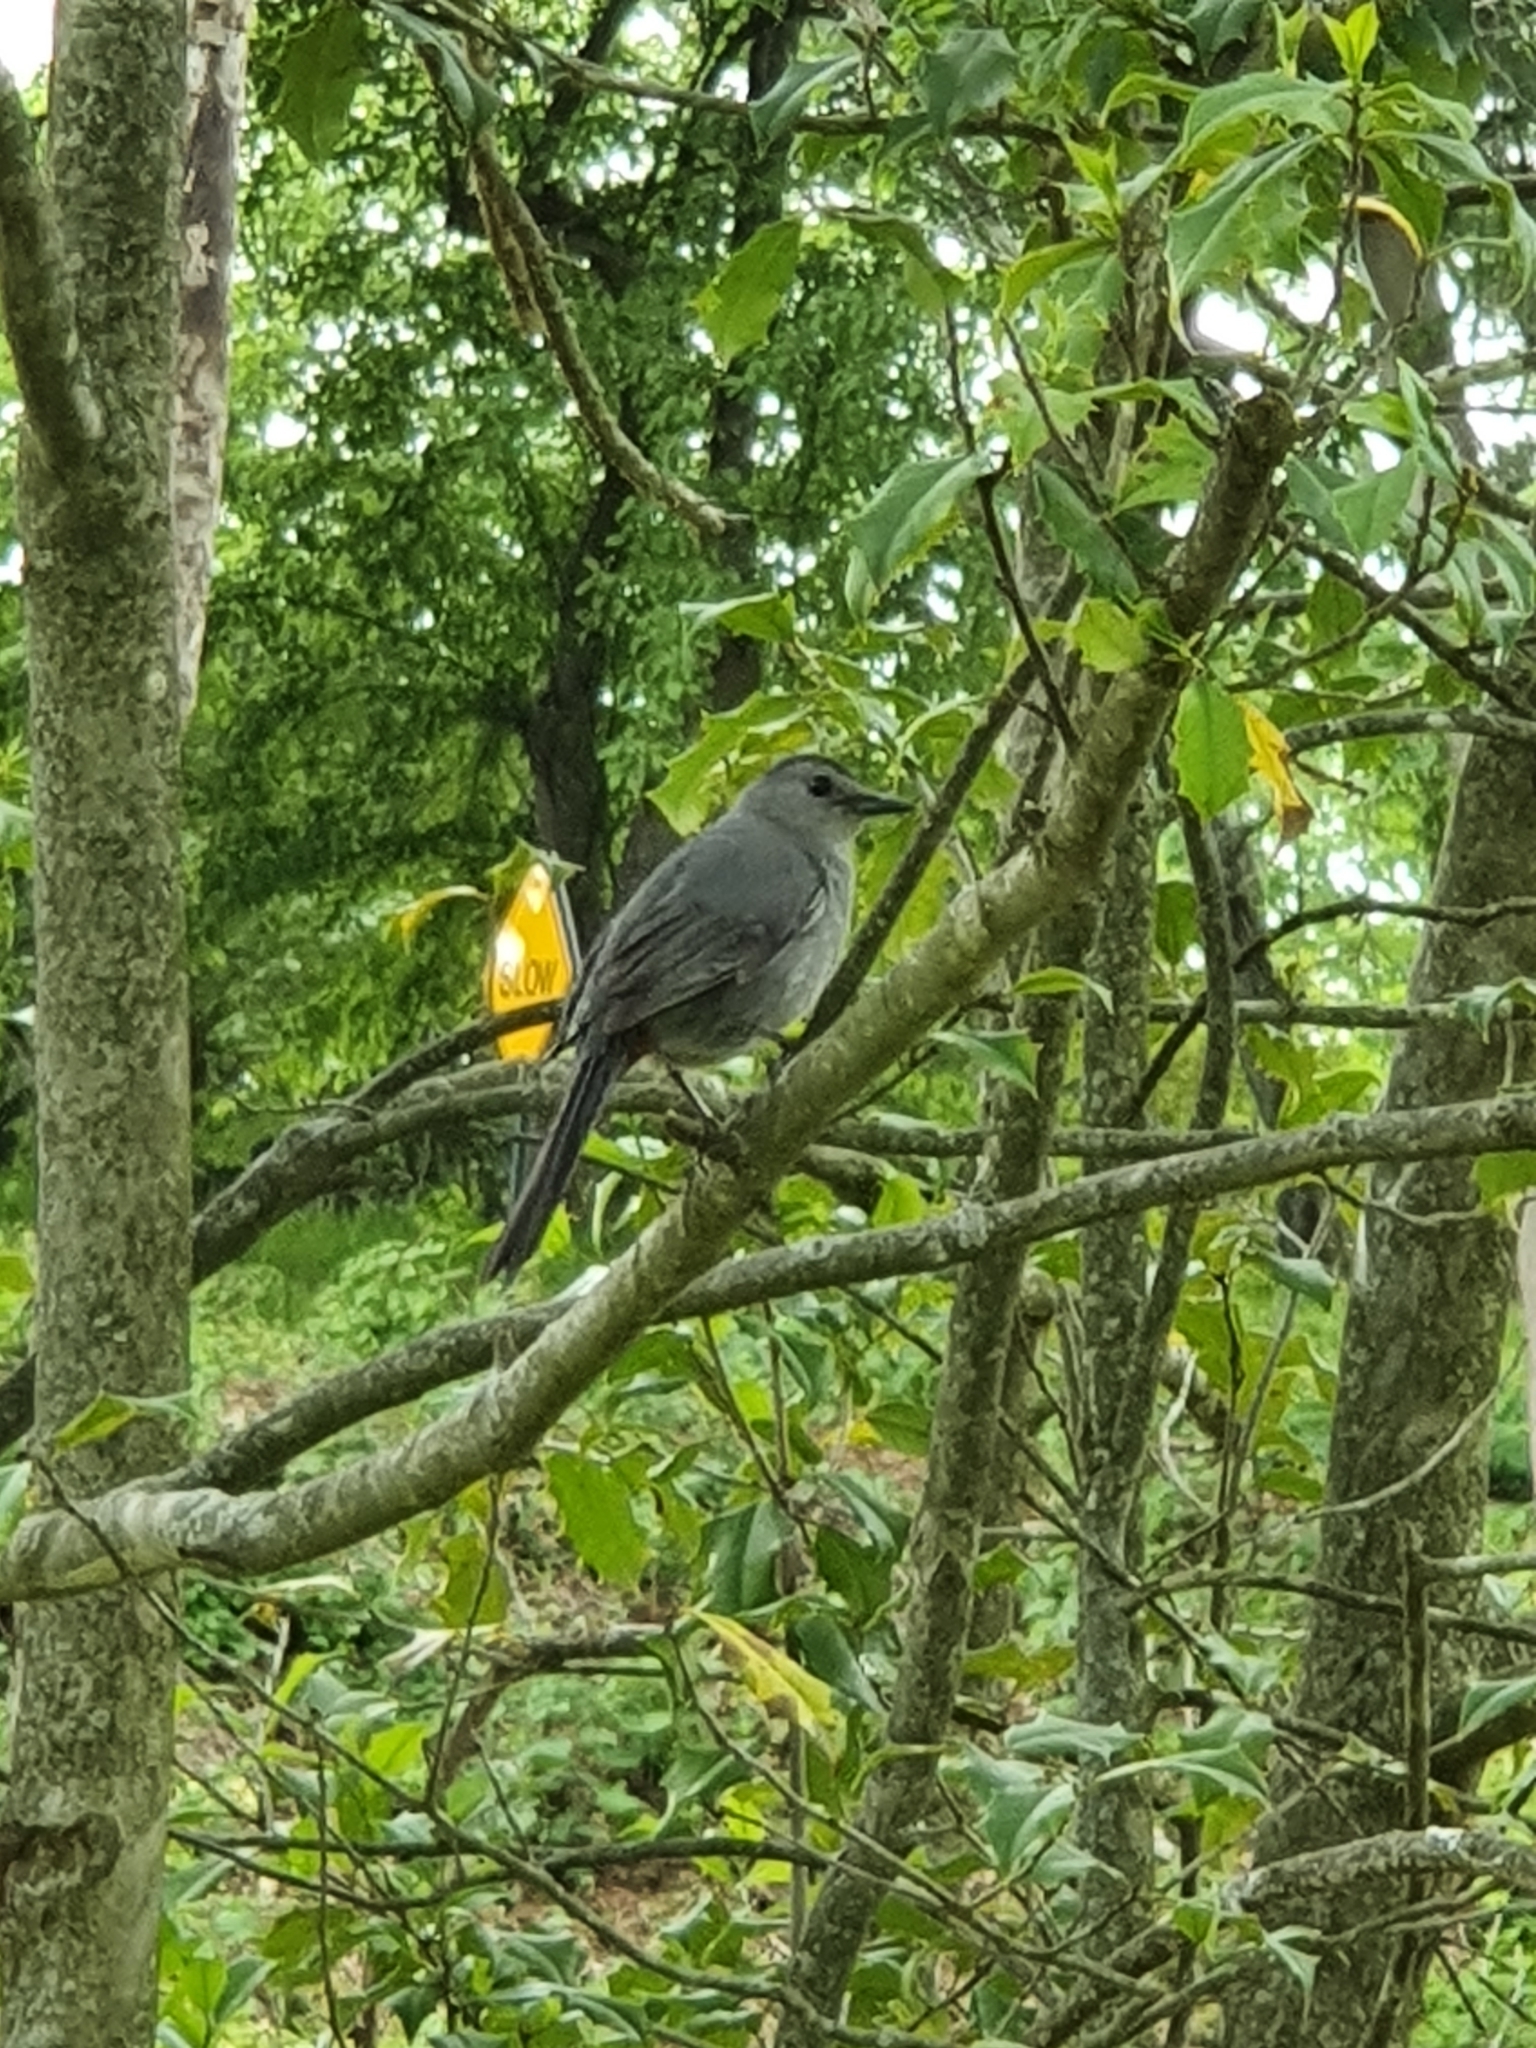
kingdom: Animalia
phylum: Chordata
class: Aves
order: Passeriformes
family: Mimidae
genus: Dumetella
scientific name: Dumetella carolinensis
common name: Gray catbird
